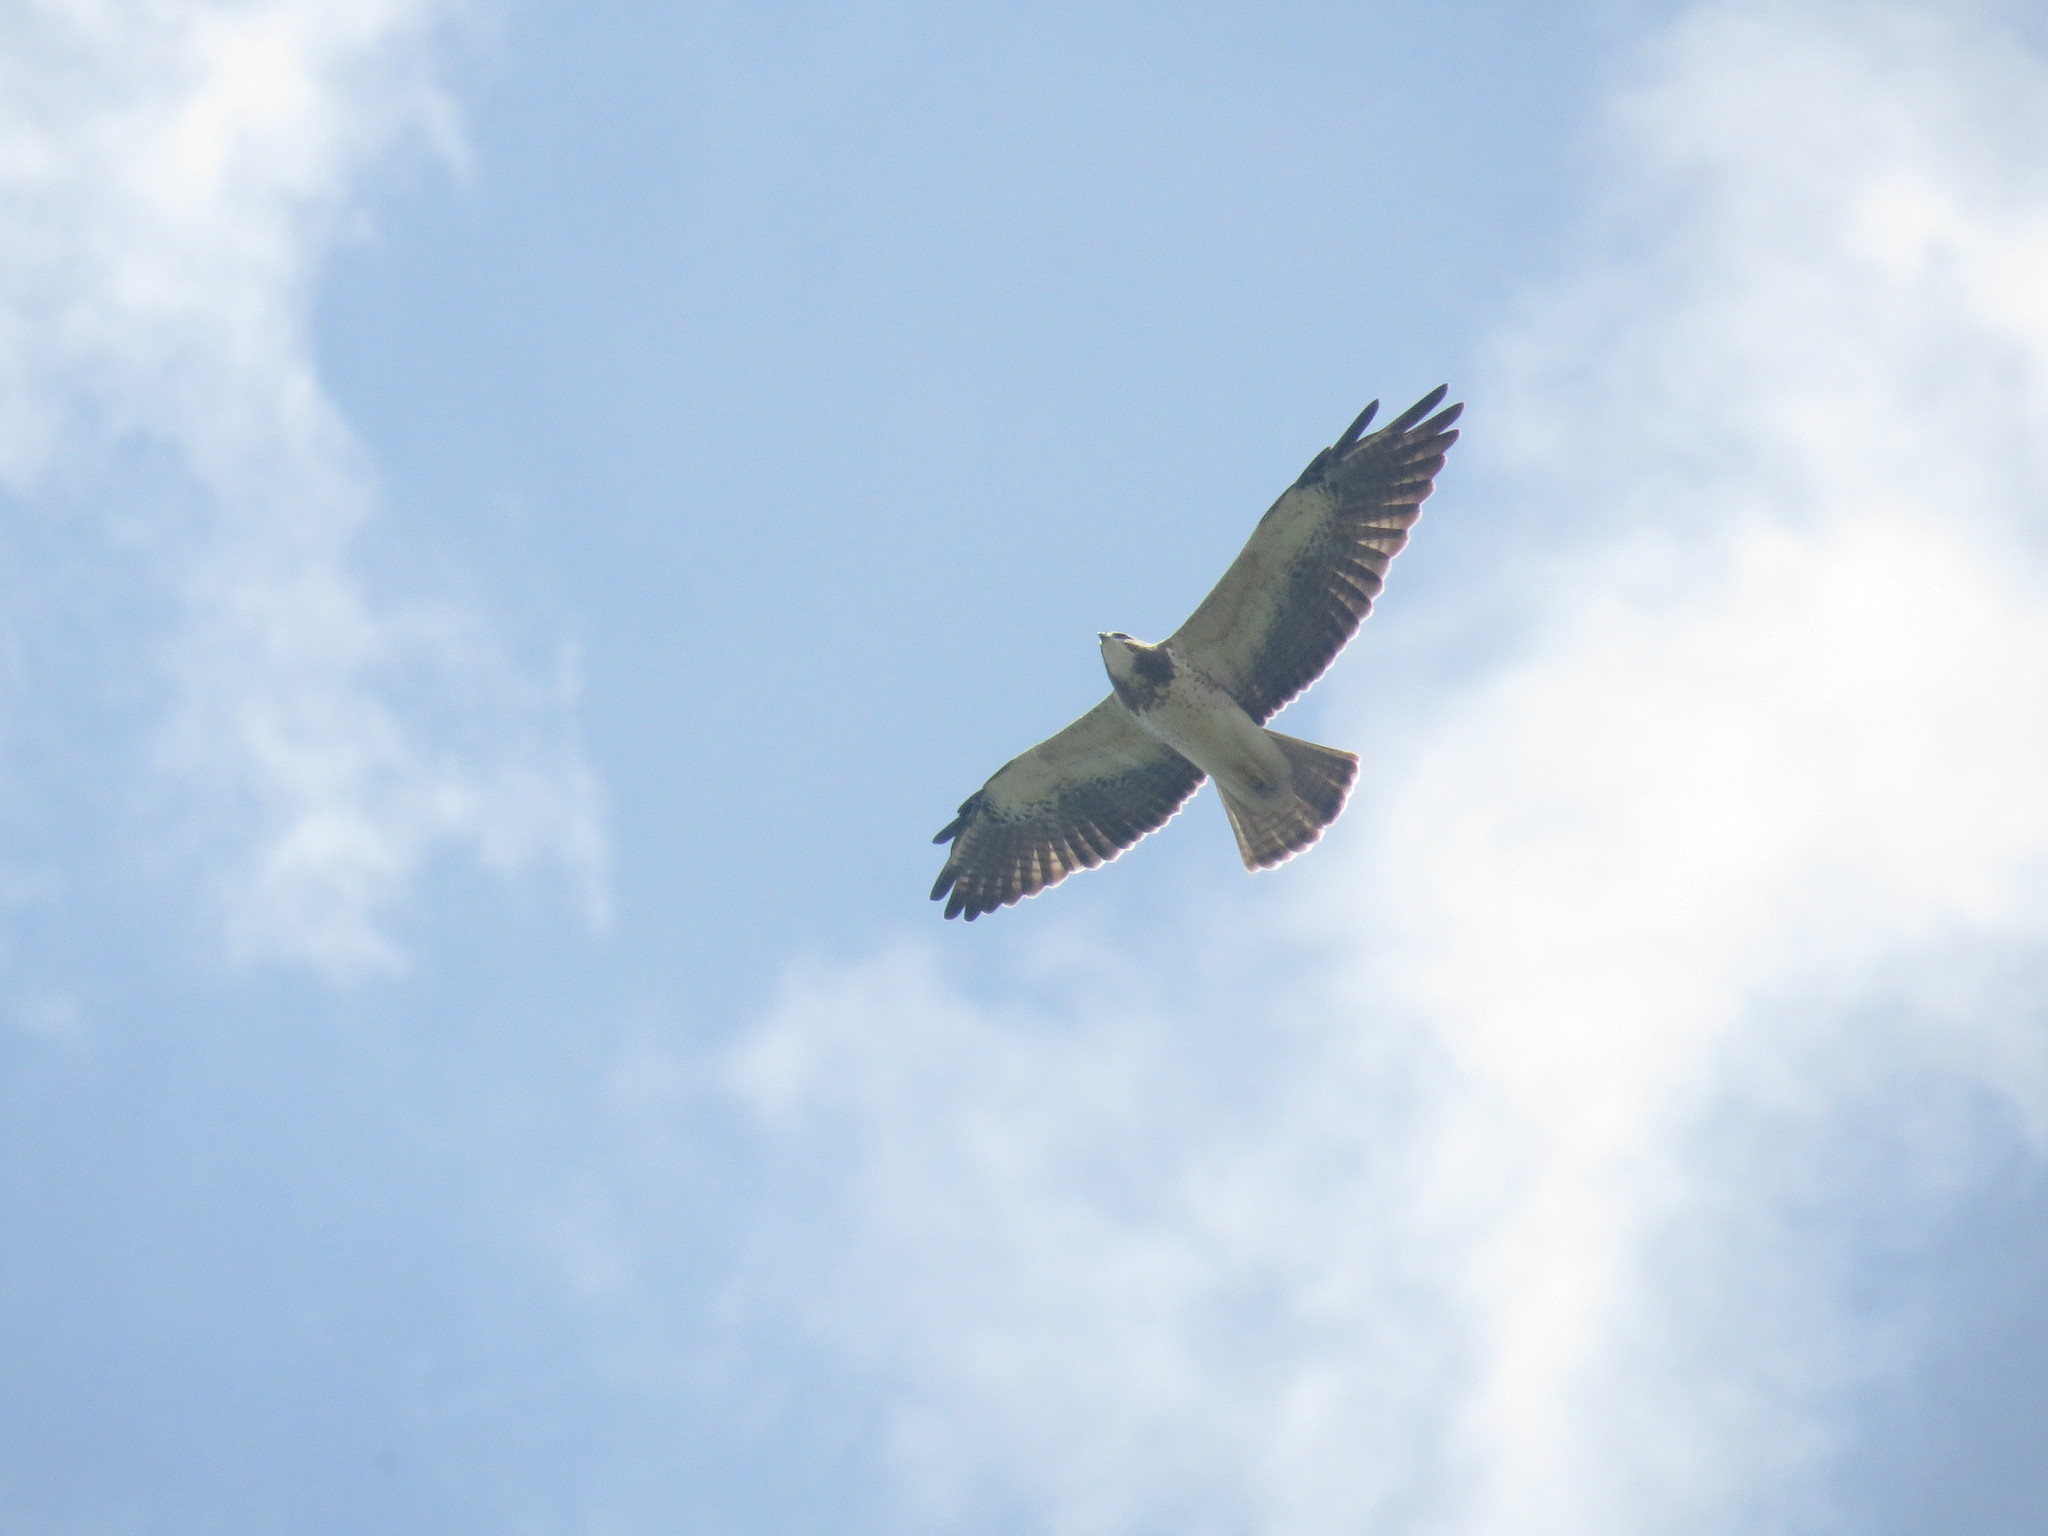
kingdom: Animalia
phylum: Chordata
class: Aves
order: Accipitriformes
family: Accipitridae
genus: Buteo
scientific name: Buteo swainsoni
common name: Swainson's hawk
